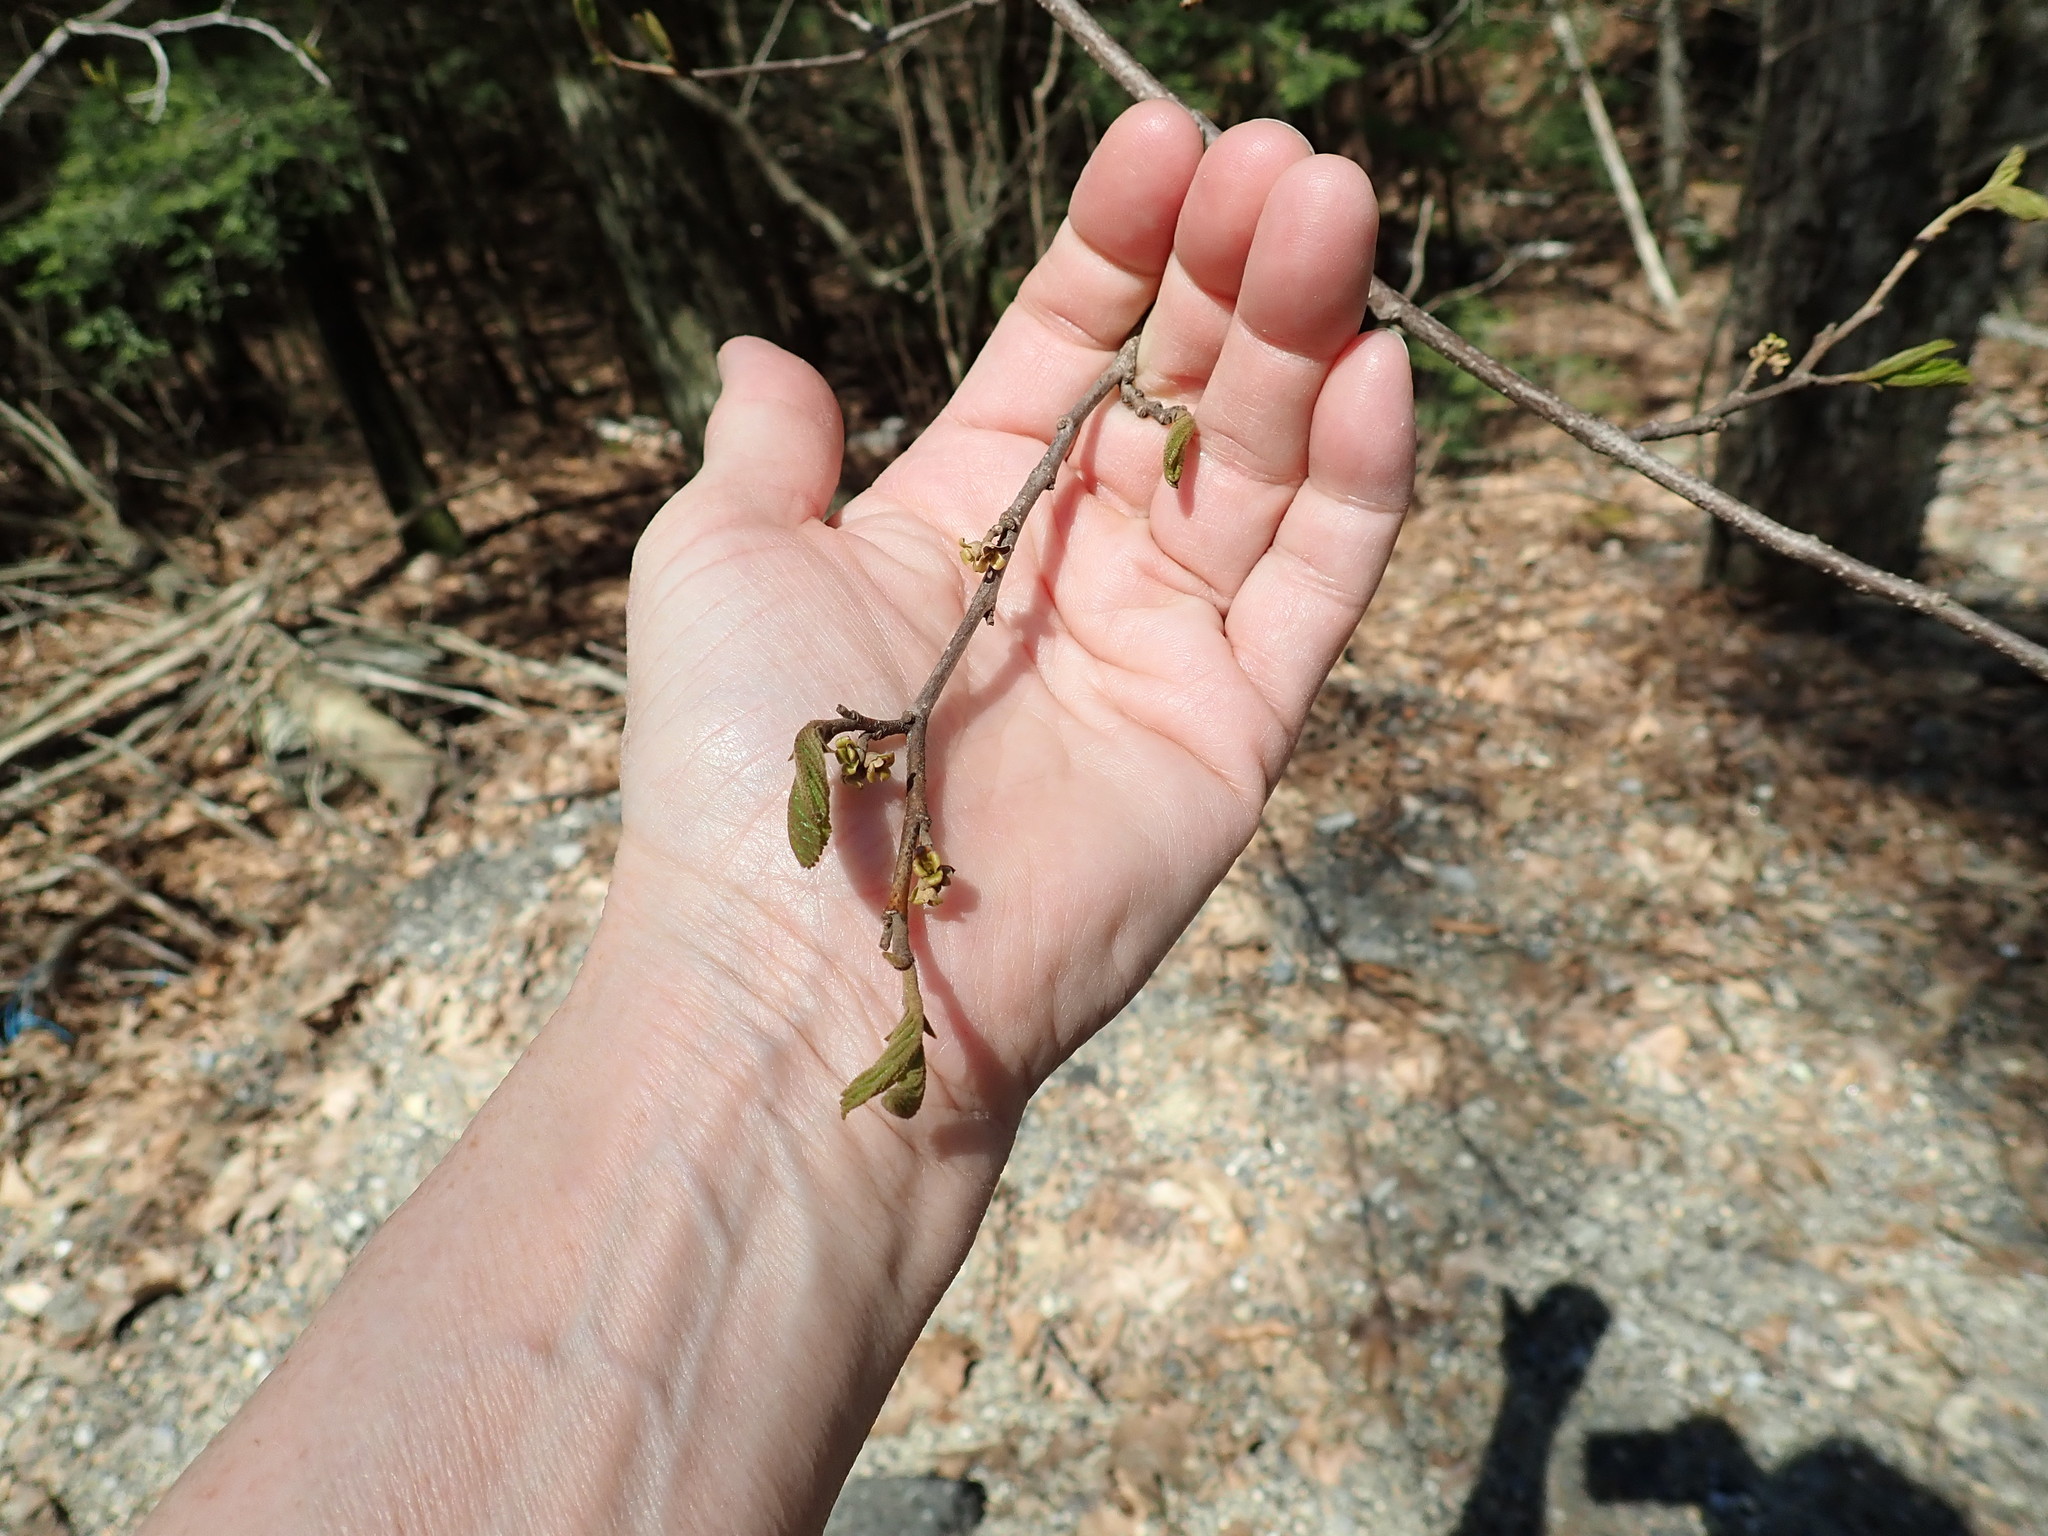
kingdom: Plantae
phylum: Tracheophyta
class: Magnoliopsida
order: Saxifragales
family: Hamamelidaceae
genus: Hamamelis
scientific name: Hamamelis virginiana
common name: Witch-hazel
